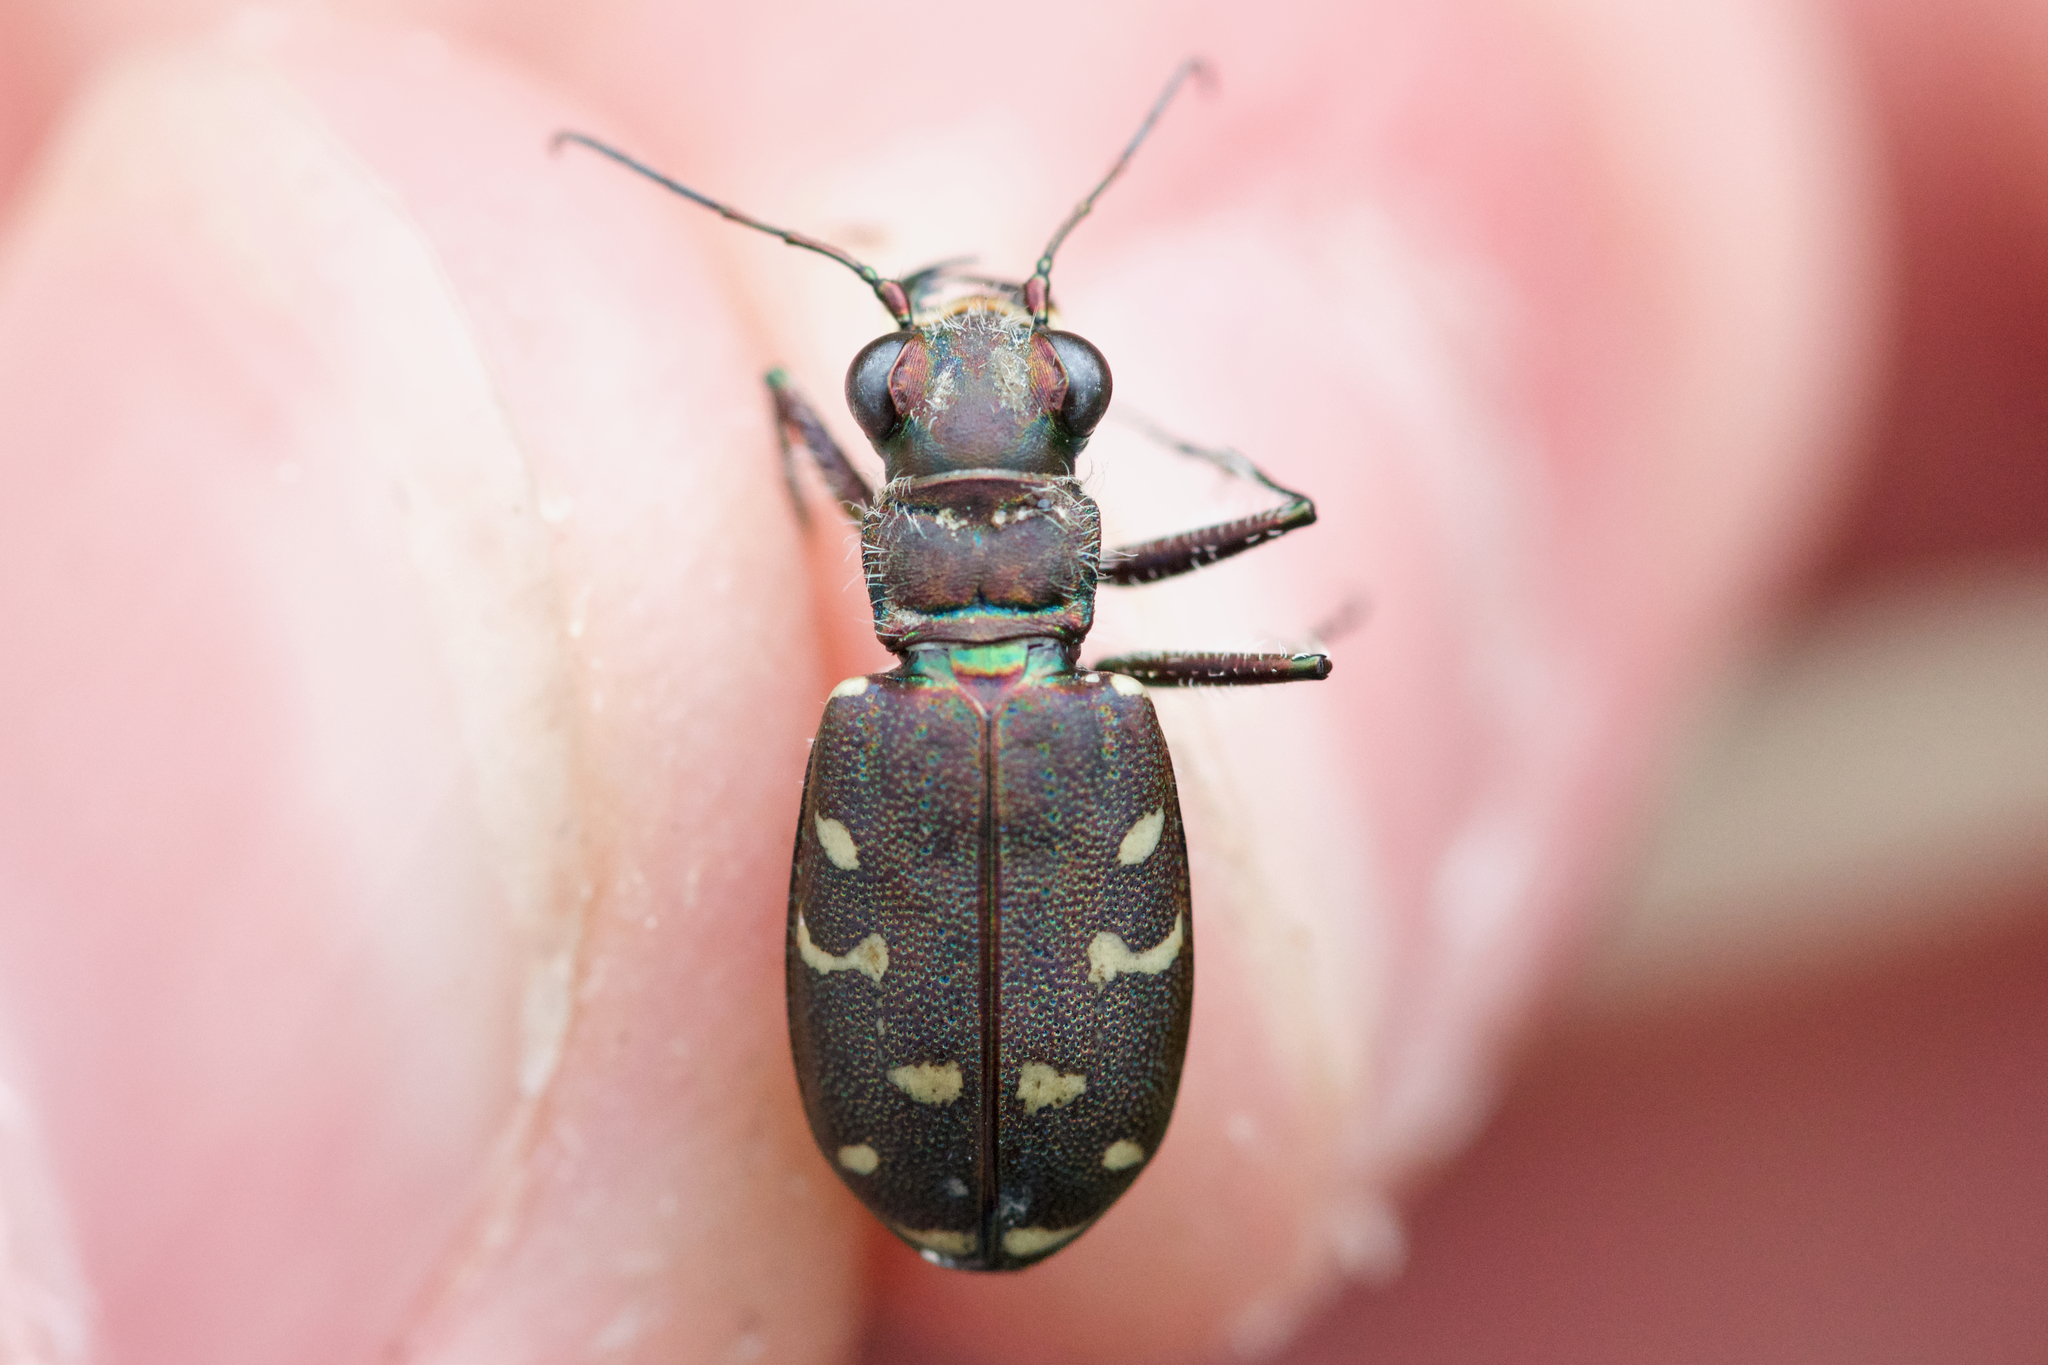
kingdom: Animalia
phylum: Arthropoda
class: Insecta
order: Coleoptera
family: Carabidae
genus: Cicindela
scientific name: Cicindela duodecimguttata
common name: Twelve-spotted tiger beetle
